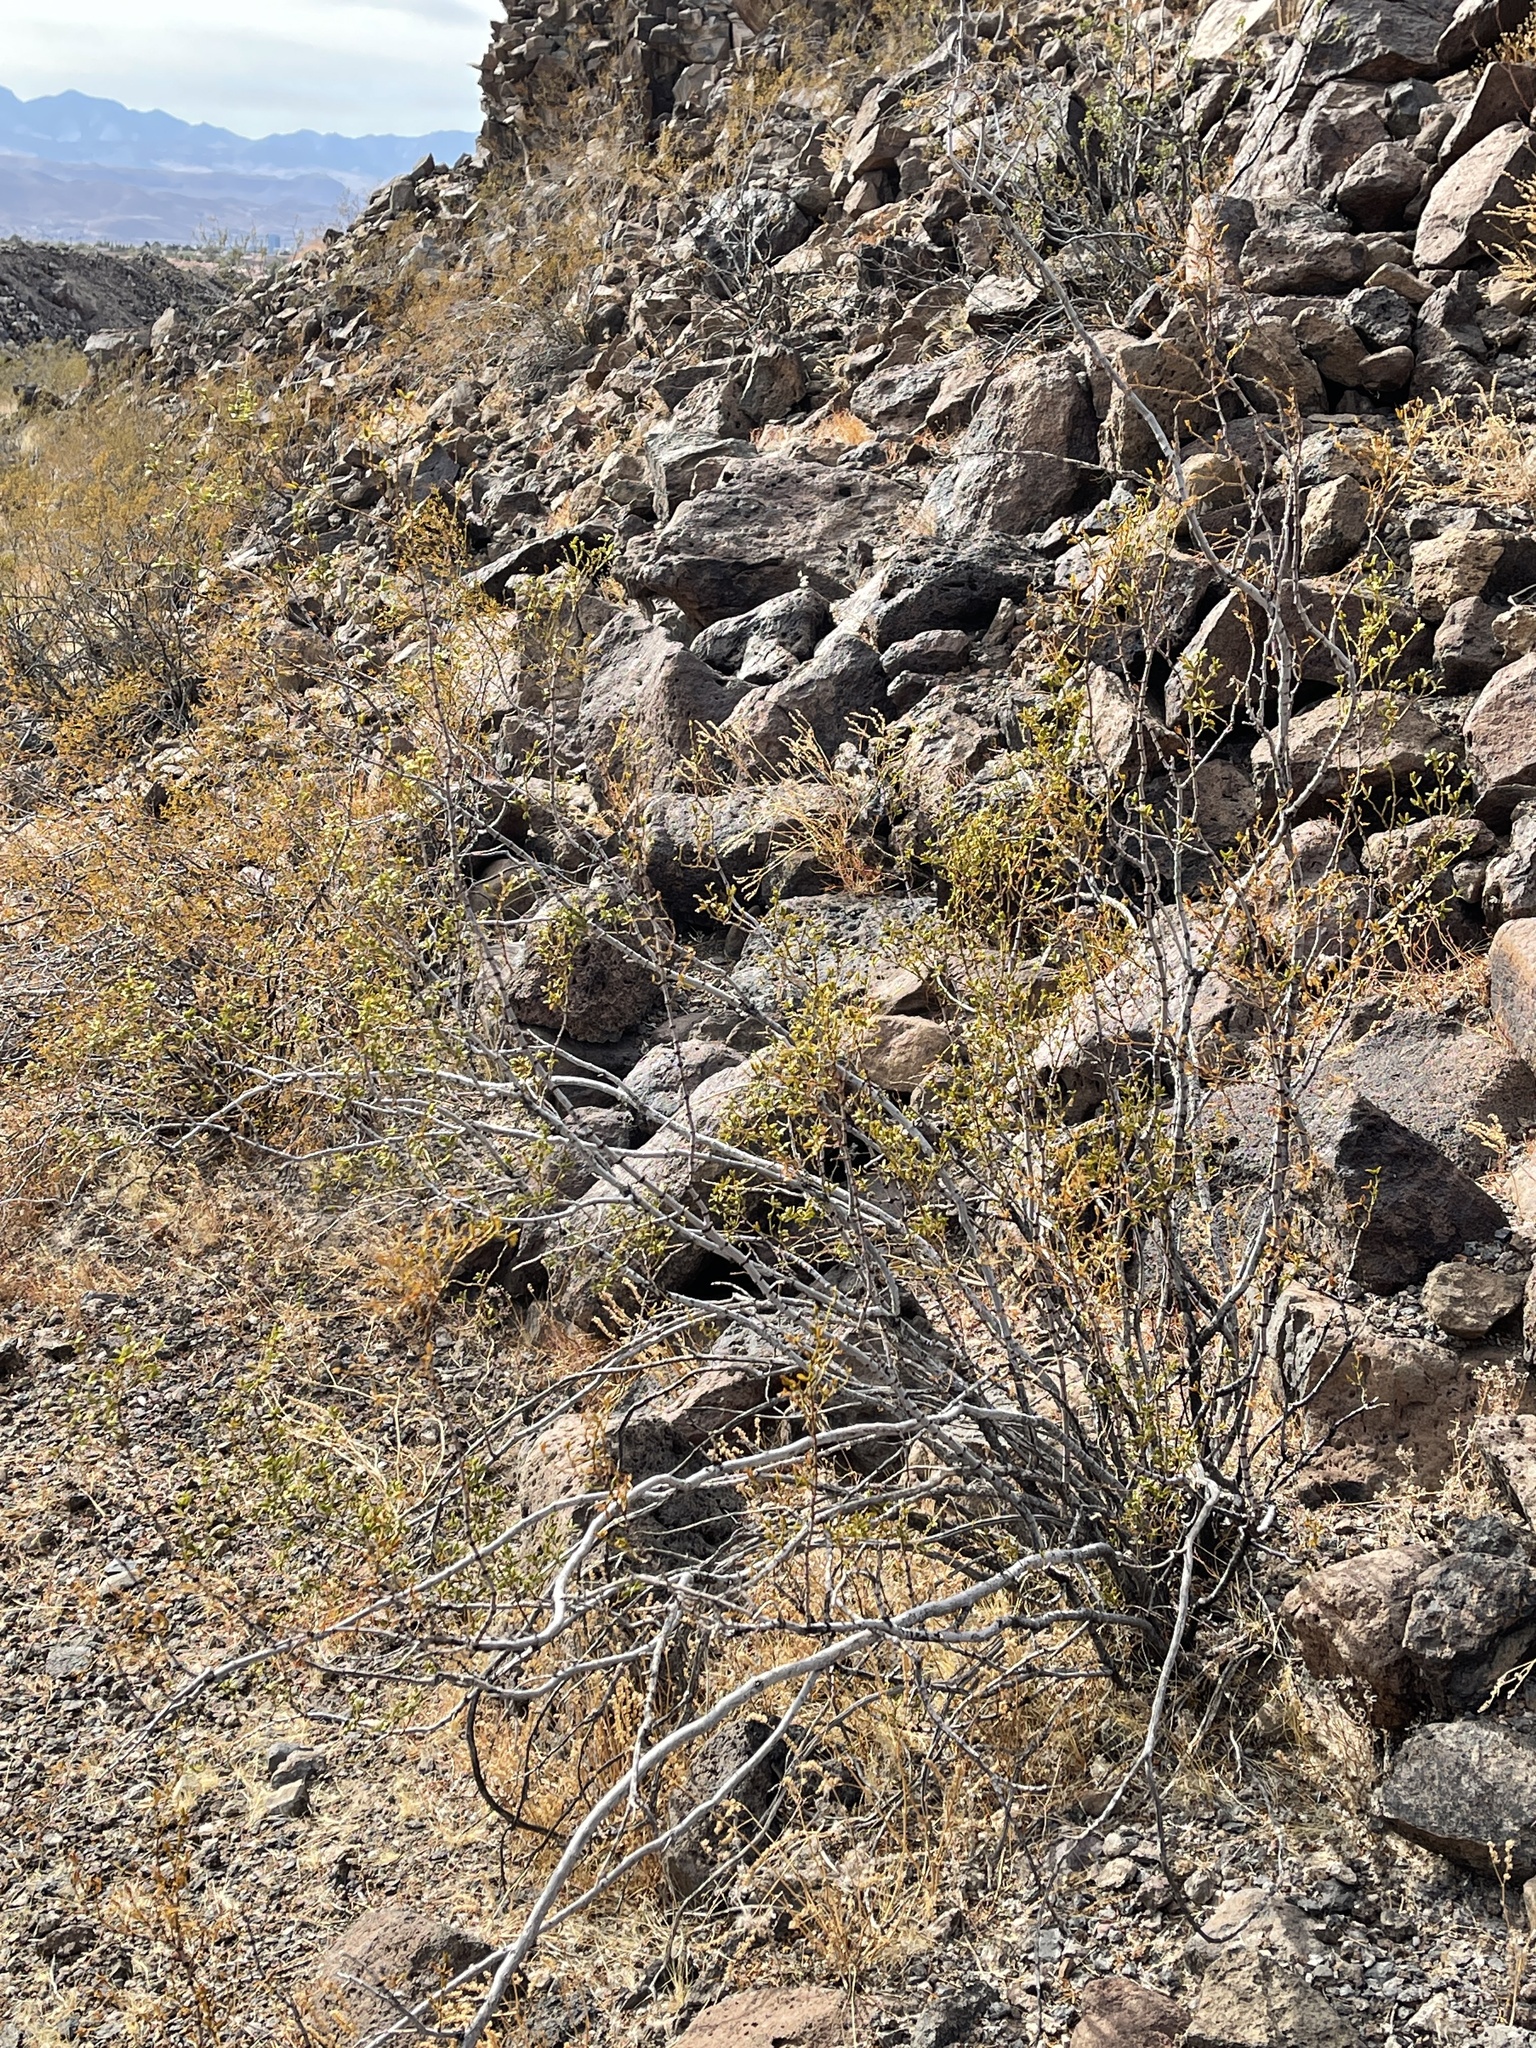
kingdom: Plantae
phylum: Tracheophyta
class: Magnoliopsida
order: Zygophyllales
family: Zygophyllaceae
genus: Larrea
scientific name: Larrea tridentata
